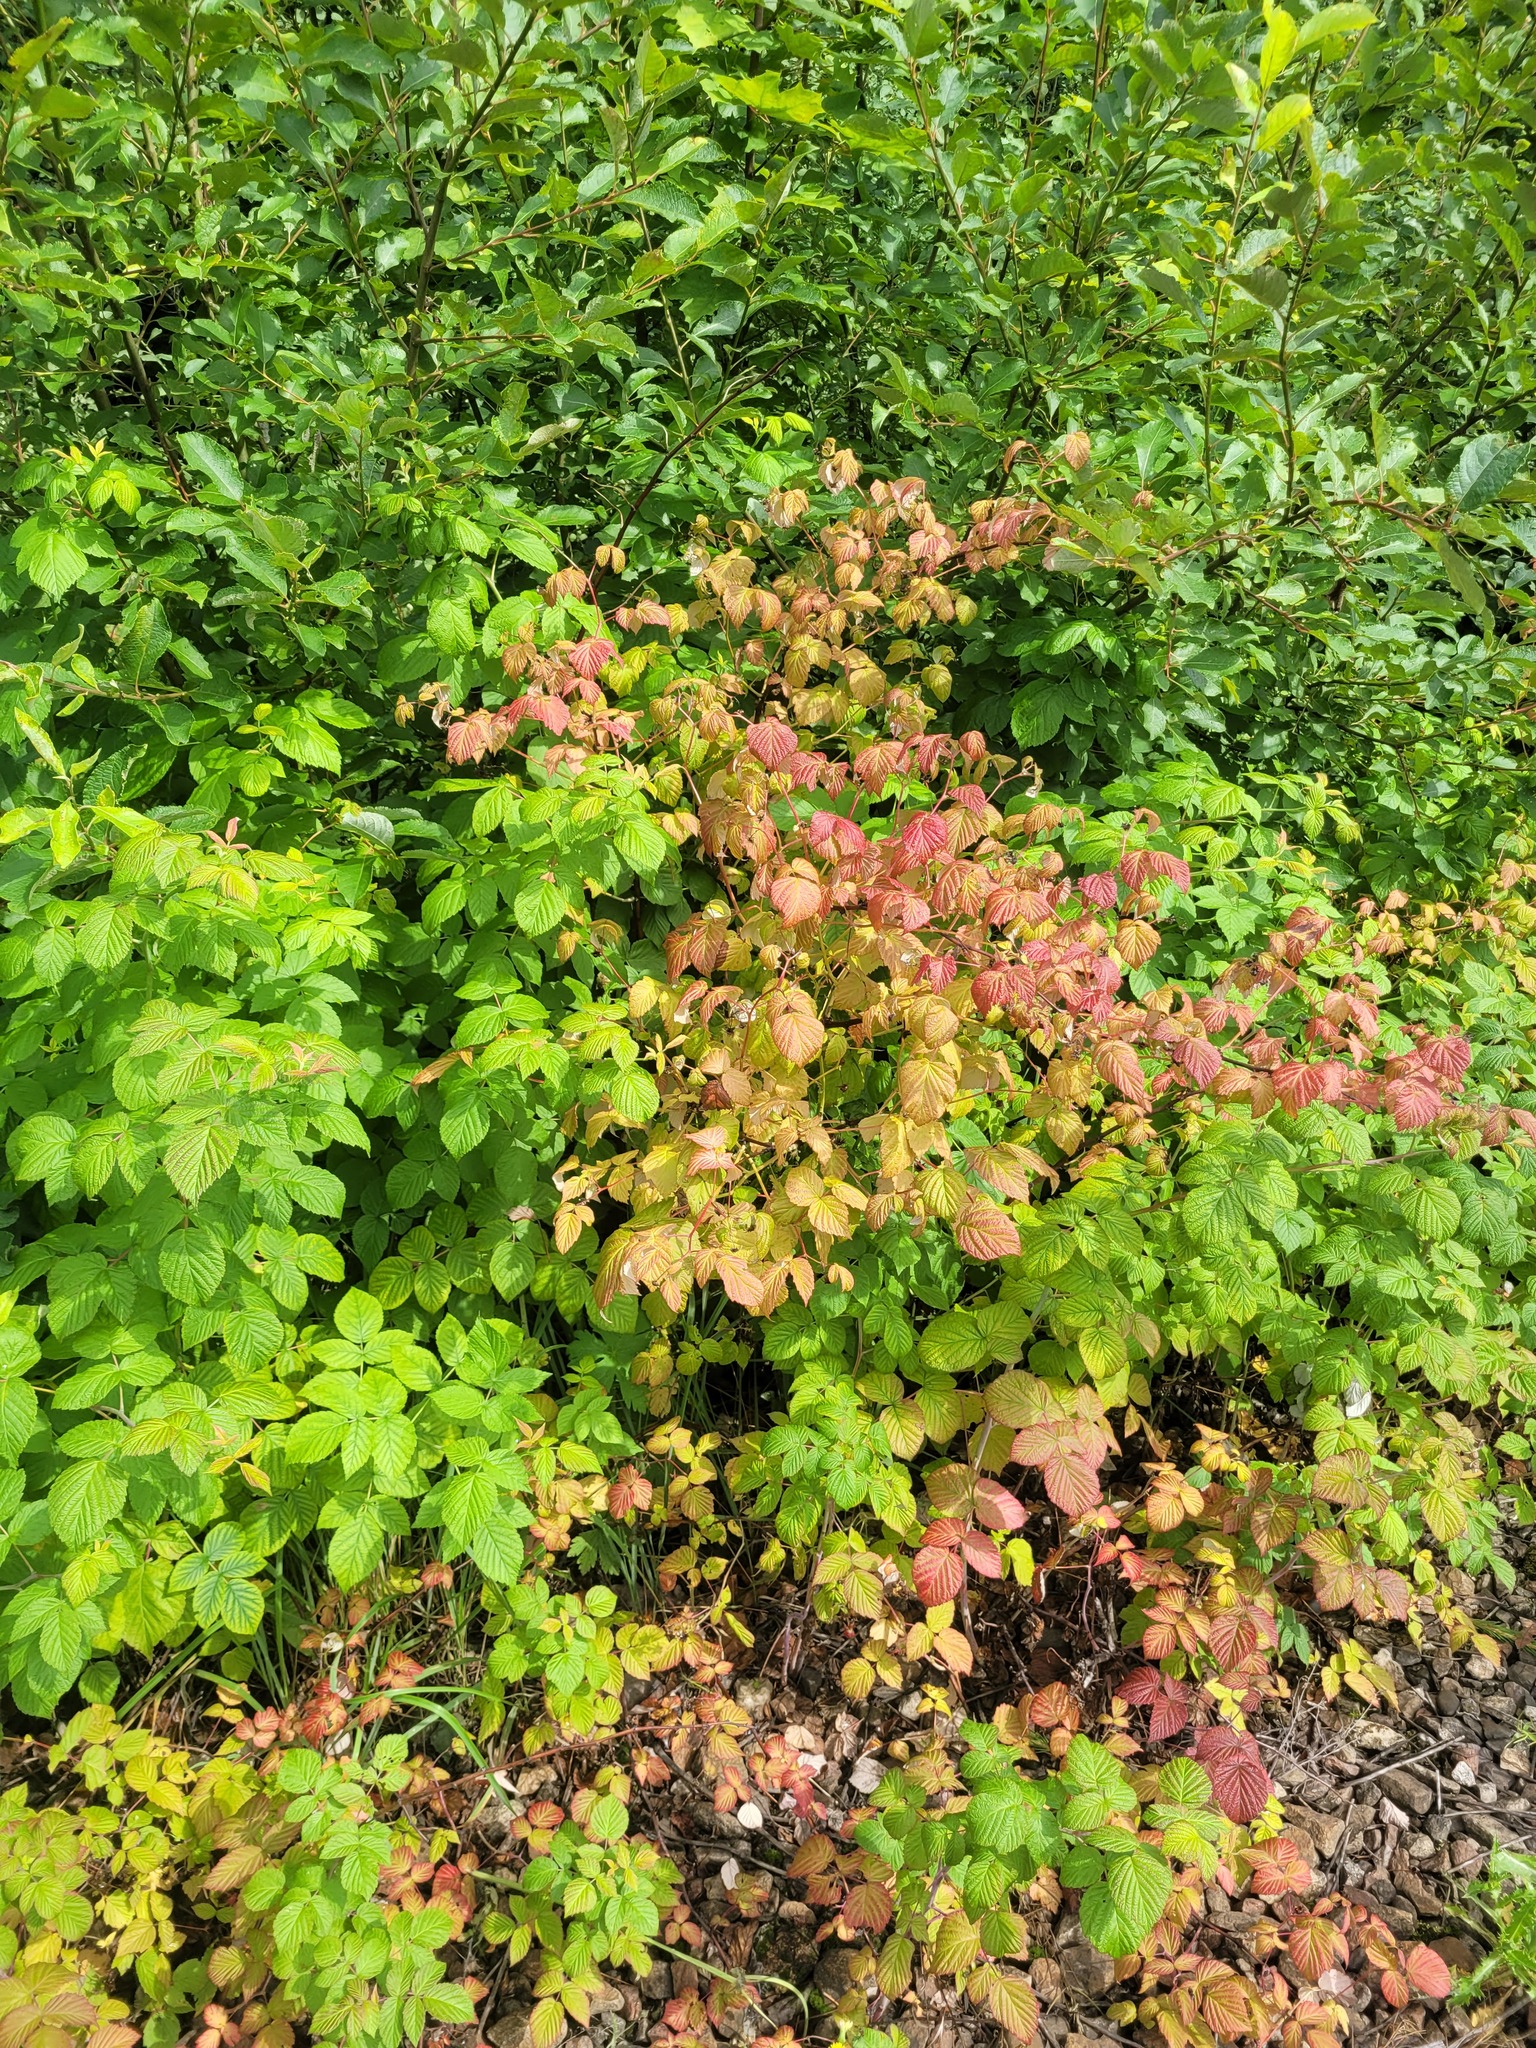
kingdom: Plantae
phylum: Tracheophyta
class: Magnoliopsida
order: Rosales
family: Rosaceae
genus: Rubus
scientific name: Rubus idaeus
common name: Raspberry
